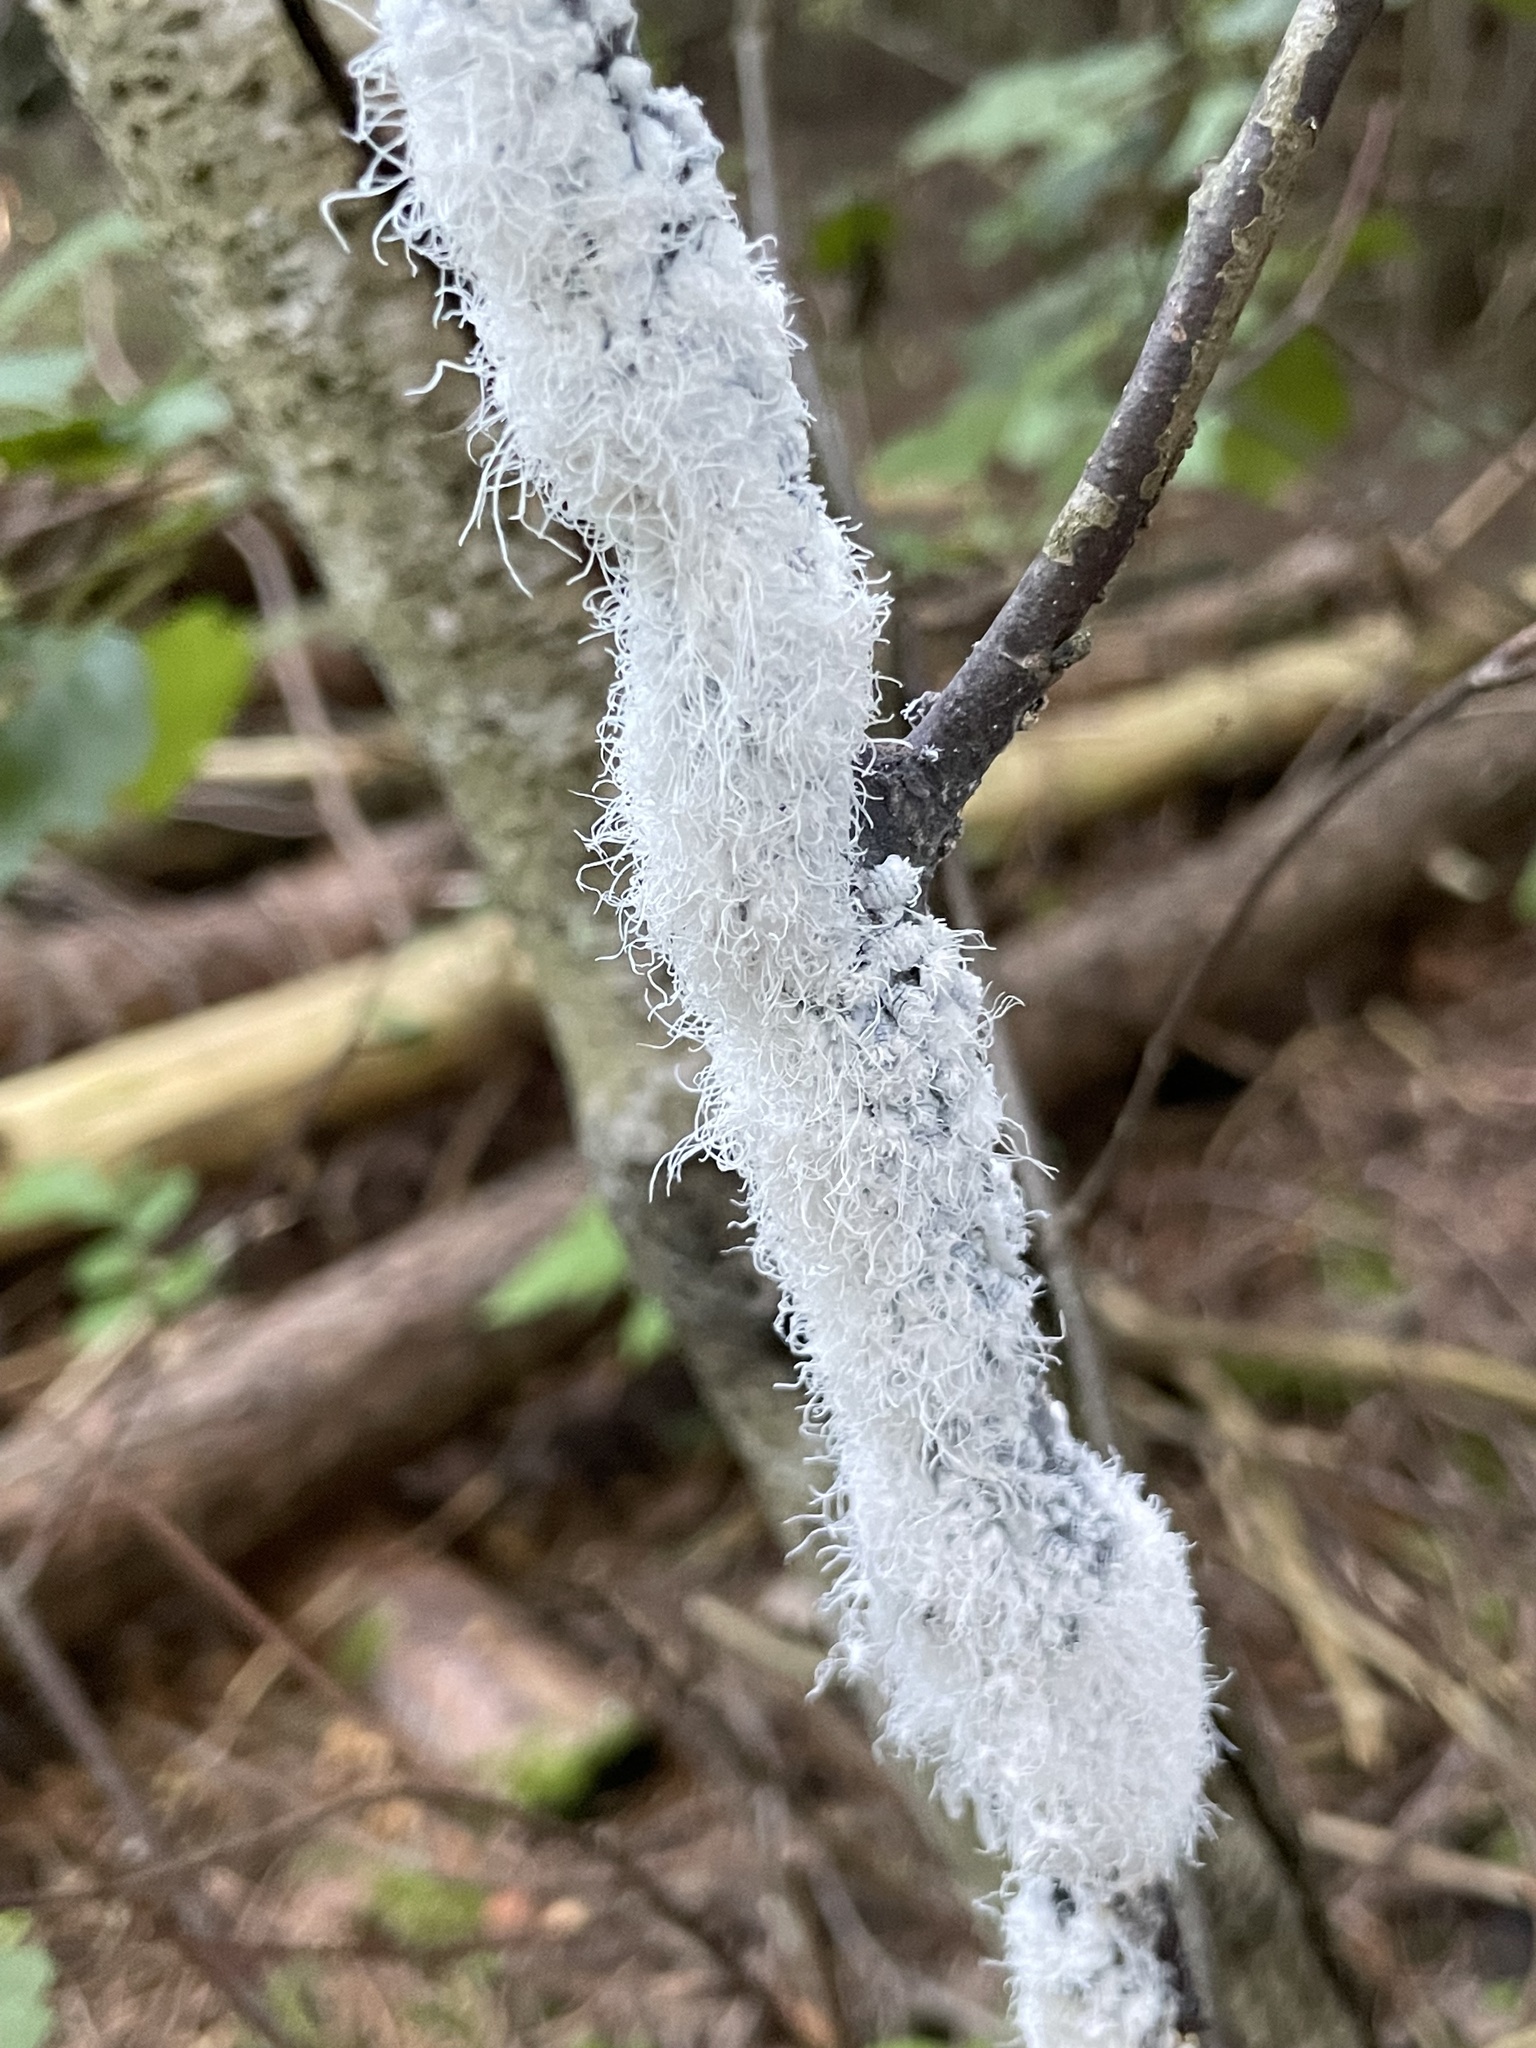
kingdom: Animalia
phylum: Arthropoda
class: Insecta
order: Hemiptera
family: Aphididae
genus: Prociphilus
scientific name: Prociphilus tessellatus
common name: Woolly alder aphid
